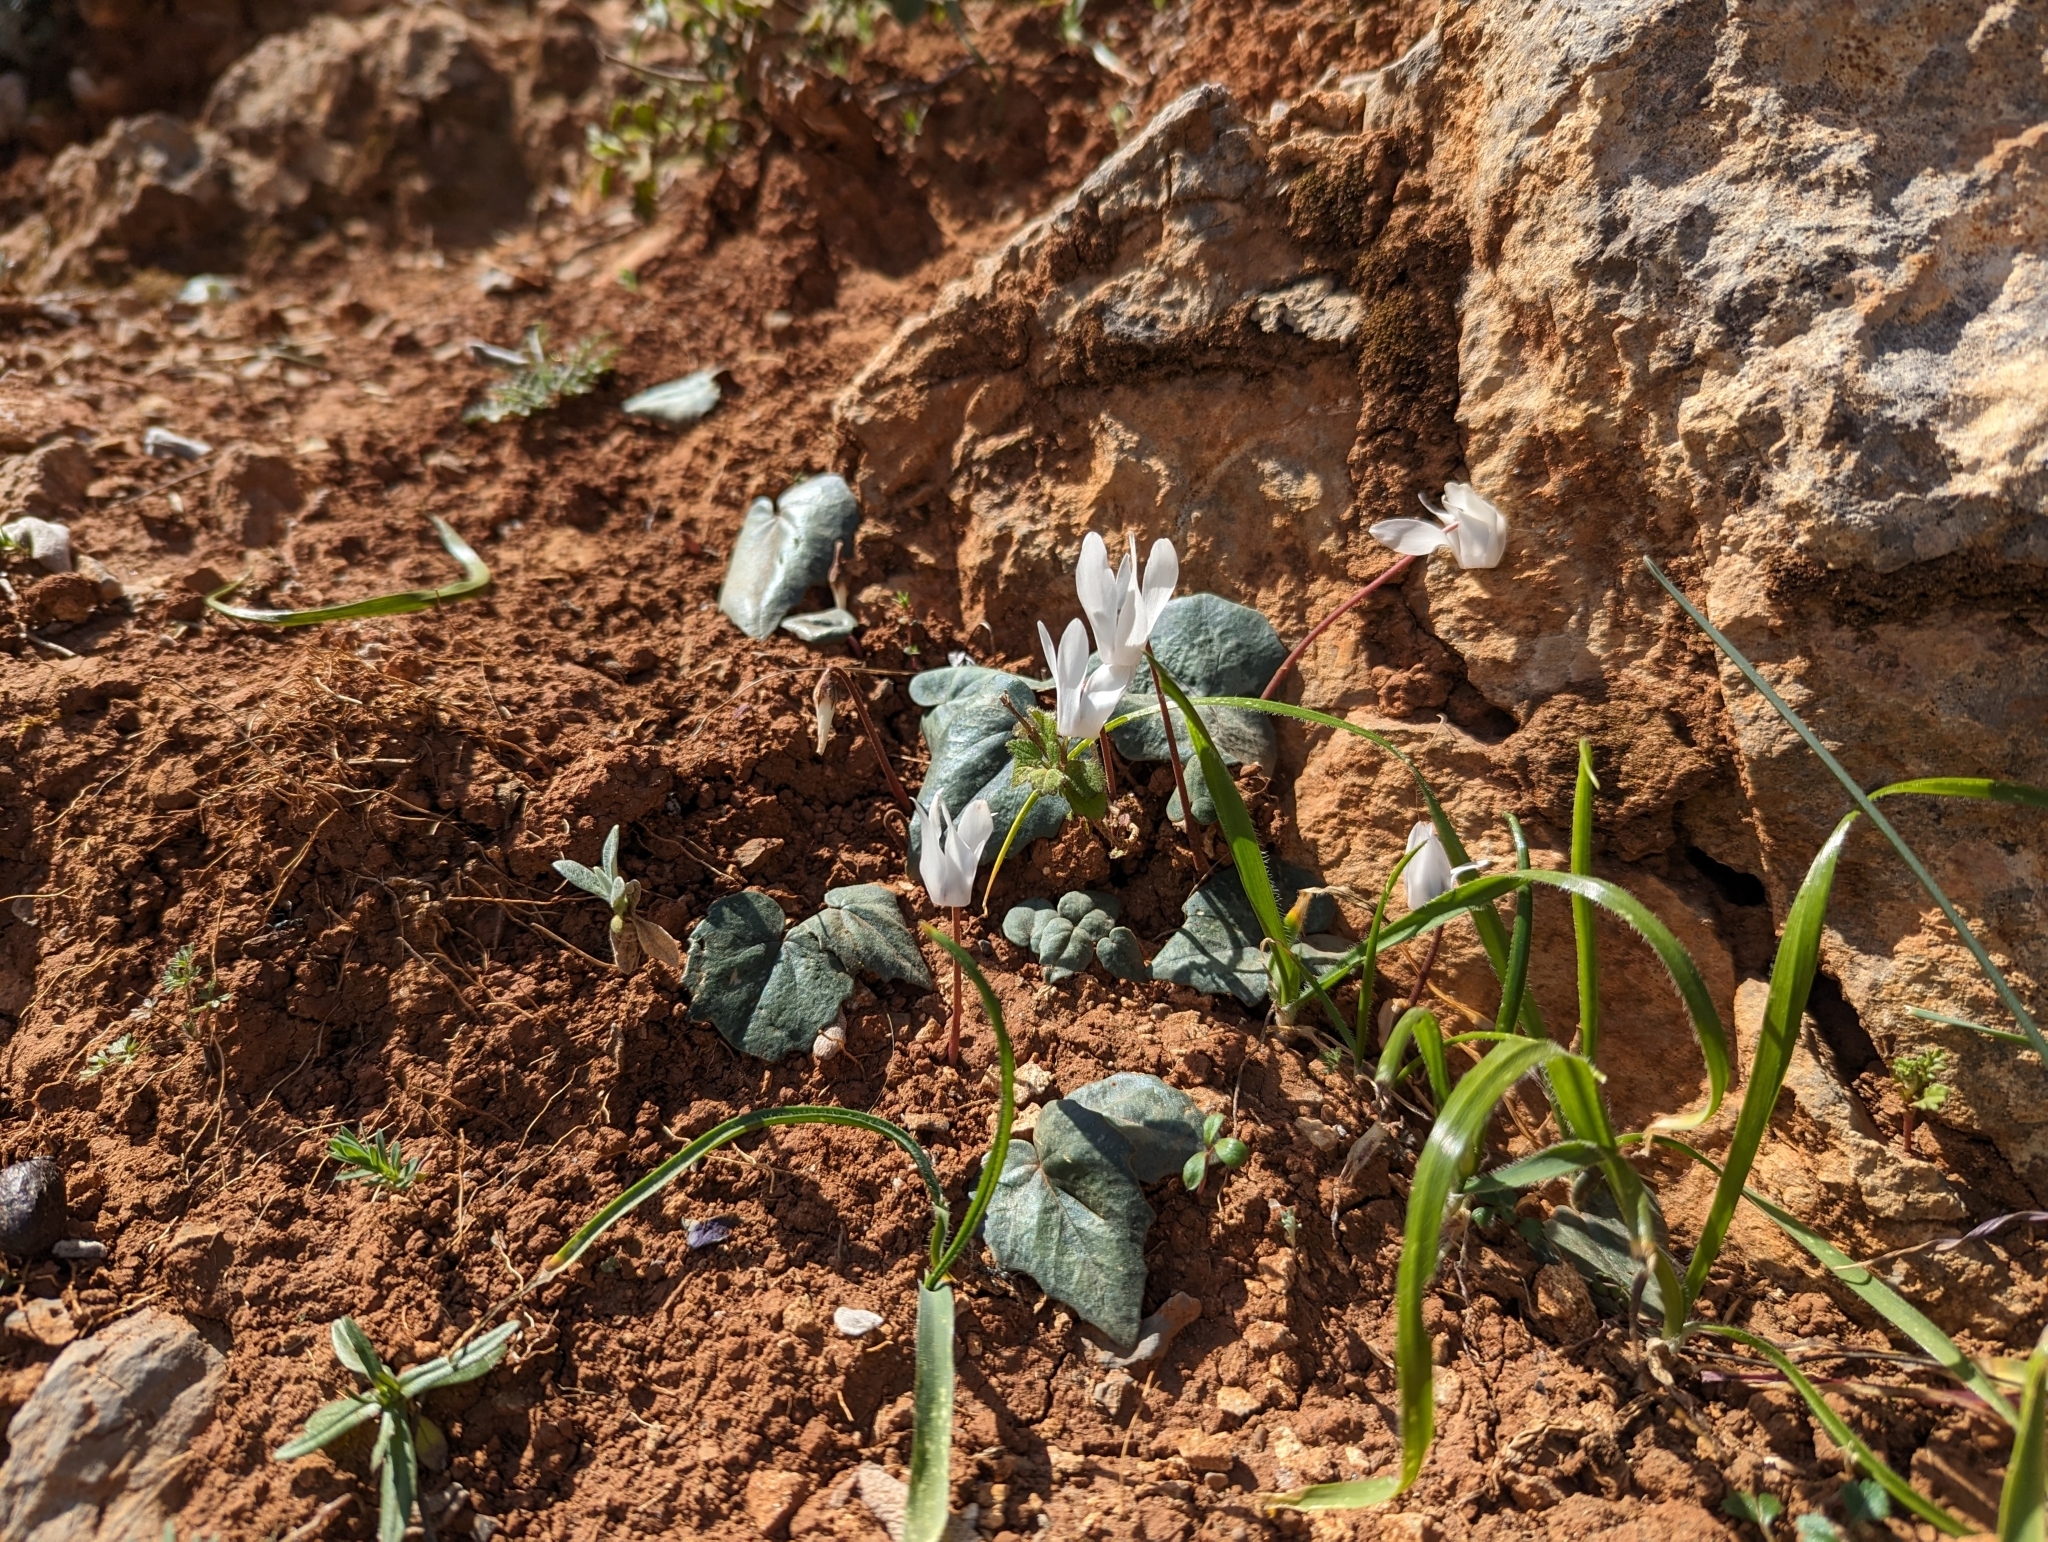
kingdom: Plantae
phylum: Tracheophyta
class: Magnoliopsida
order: Ericales
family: Primulaceae
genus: Cyclamen
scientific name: Cyclamen creticum
